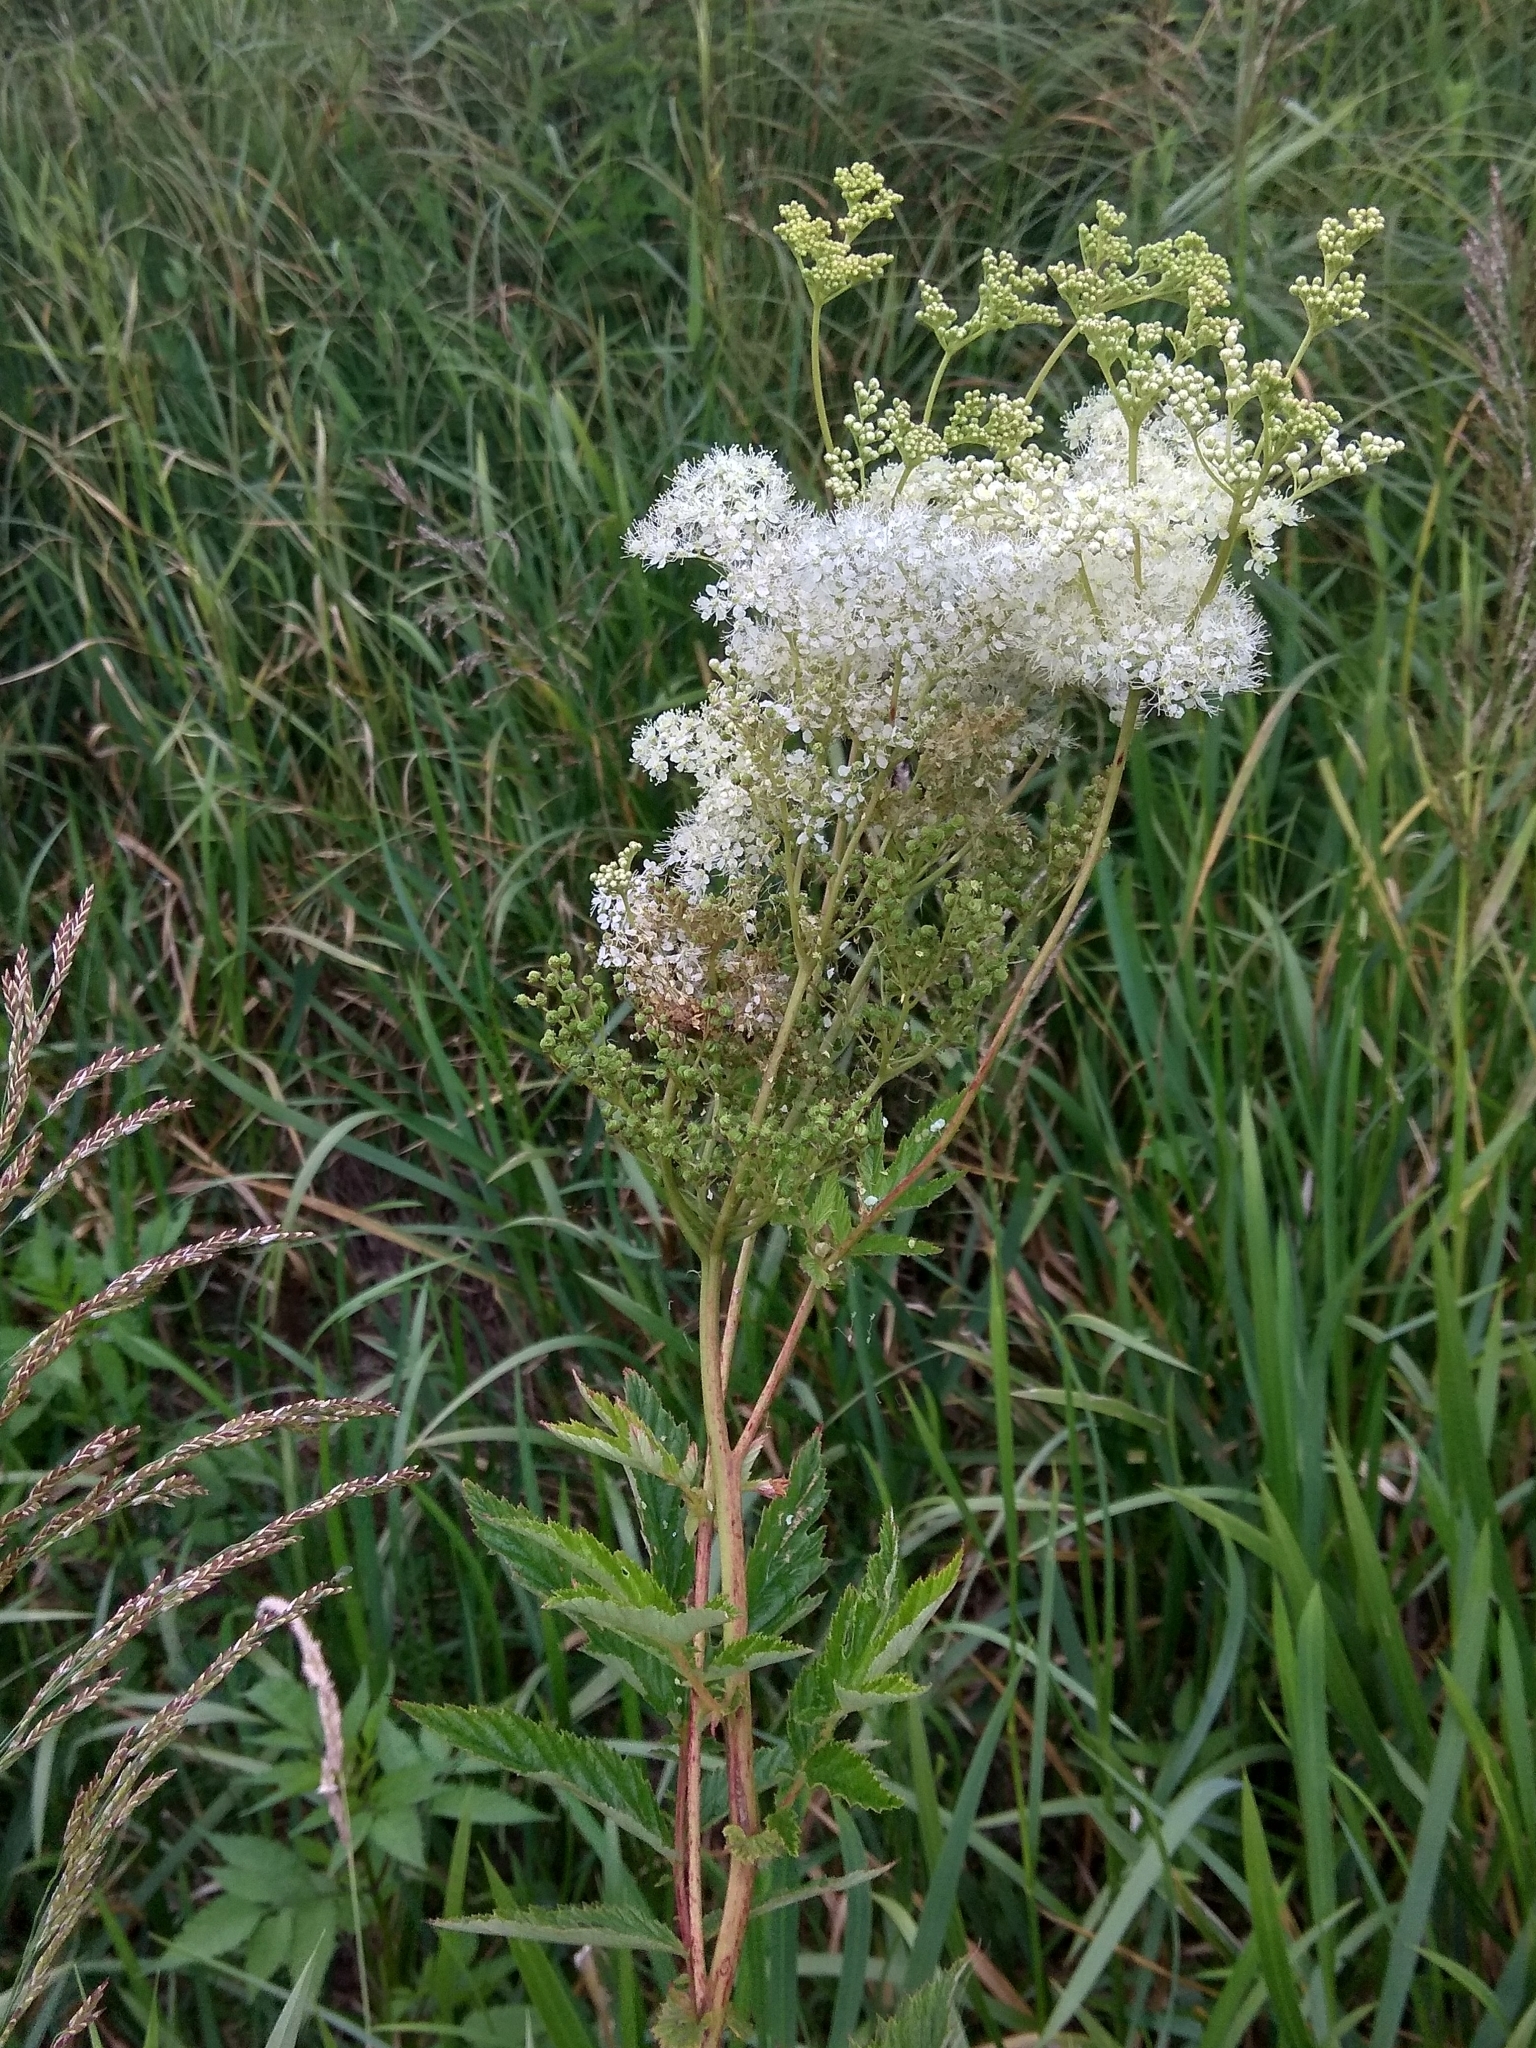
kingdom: Plantae
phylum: Tracheophyta
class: Magnoliopsida
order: Rosales
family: Rosaceae
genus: Filipendula
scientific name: Filipendula ulmaria
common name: Meadowsweet
